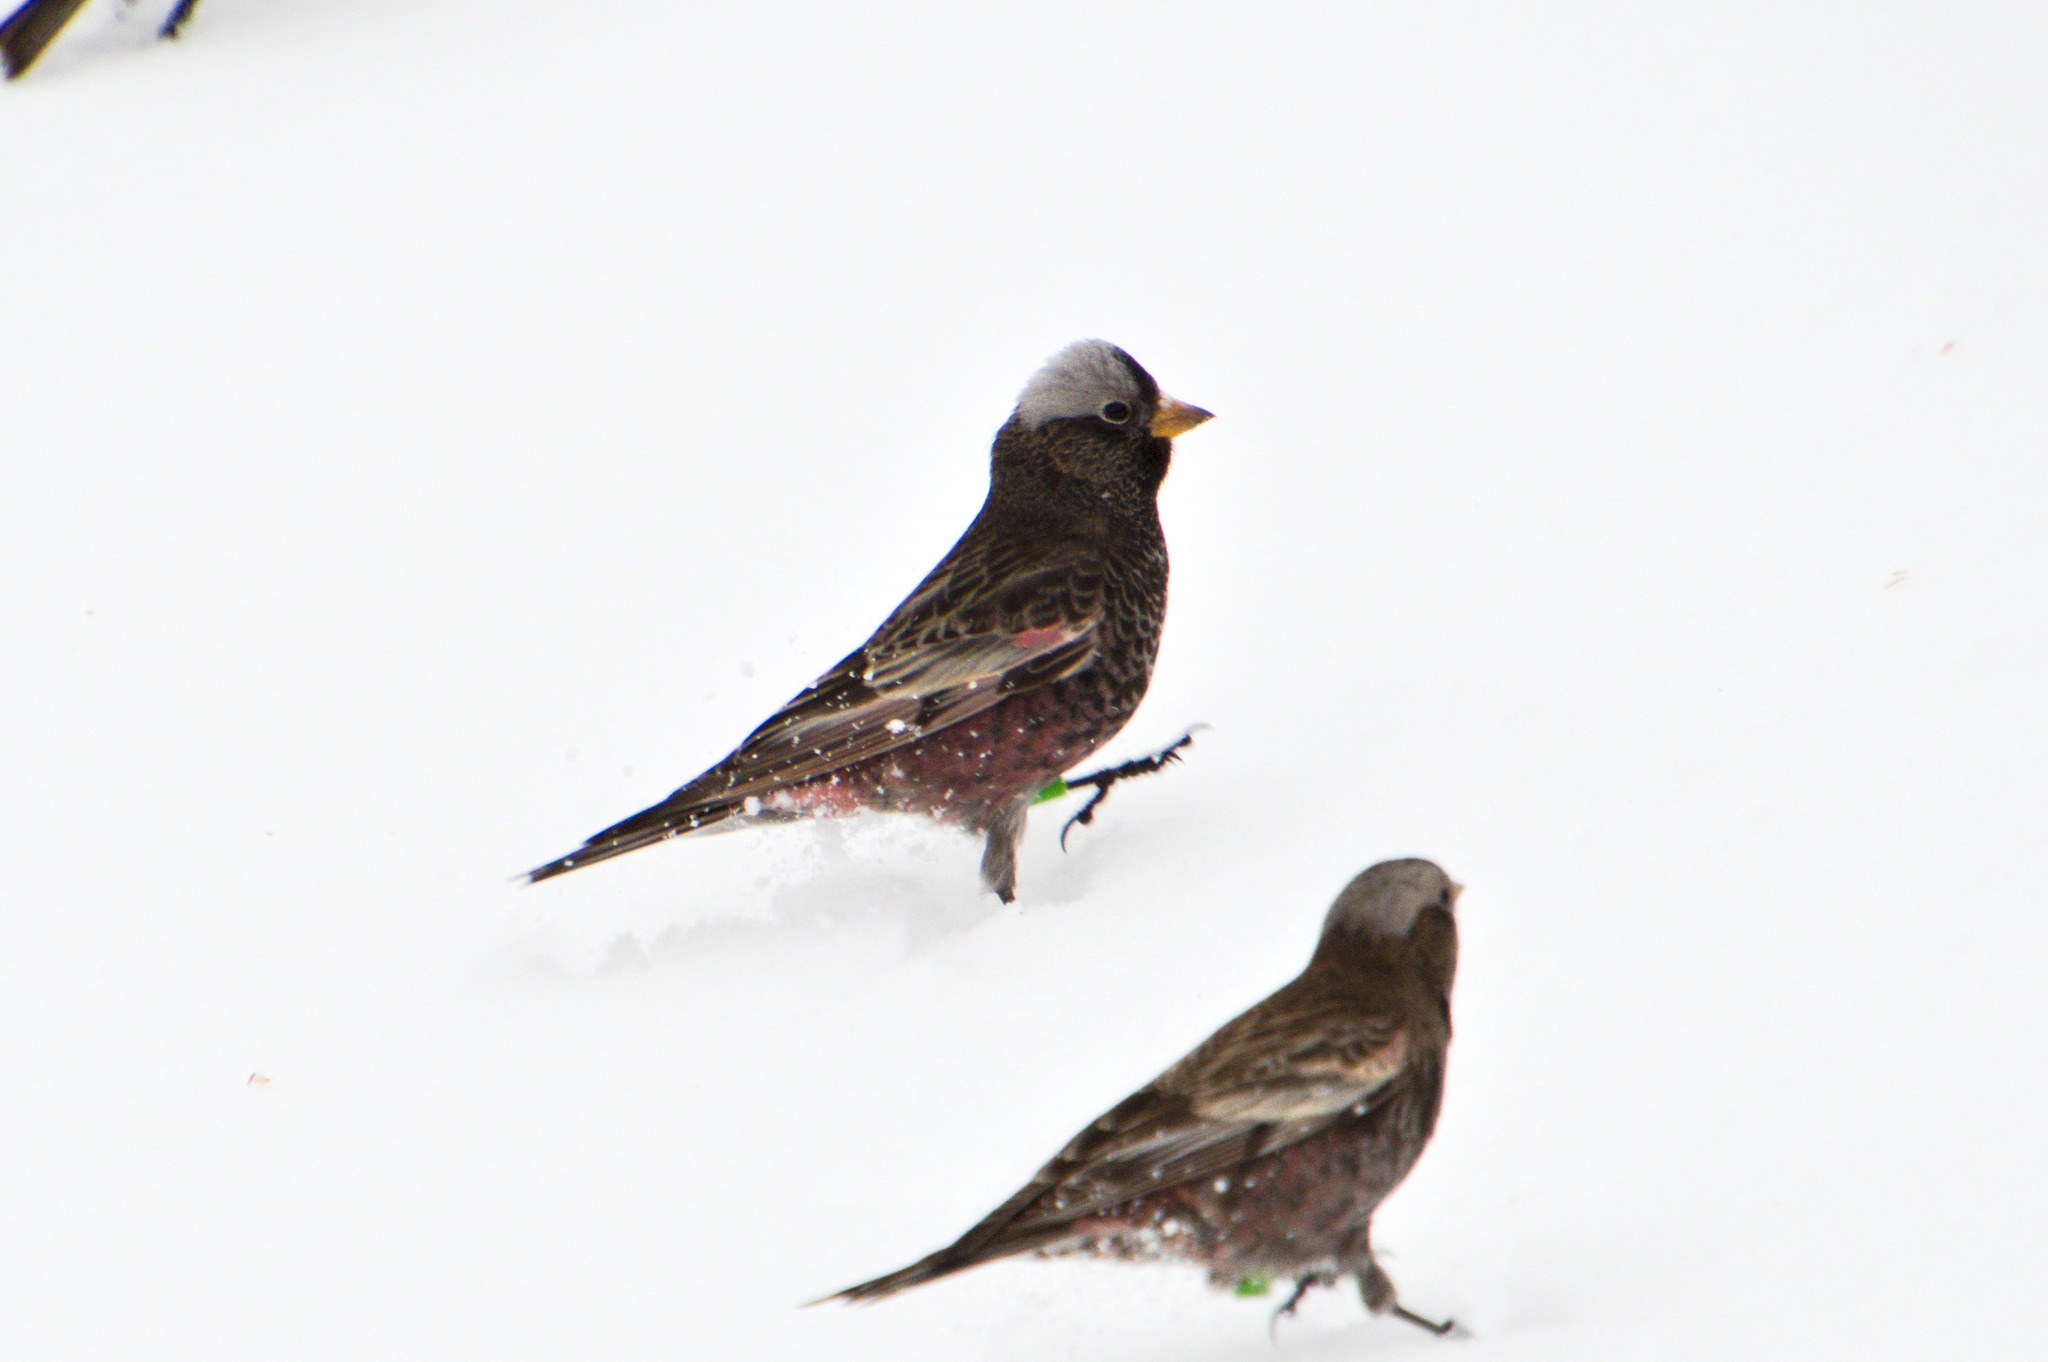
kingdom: Animalia
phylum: Chordata
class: Aves
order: Passeriformes
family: Fringillidae
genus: Leucosticte
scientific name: Leucosticte atrata
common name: Black rosy-finch
